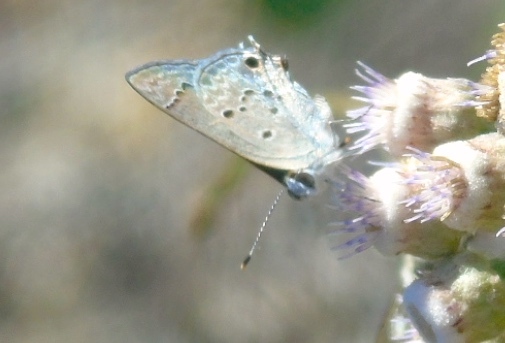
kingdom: Animalia
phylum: Arthropoda
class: Insecta
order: Lepidoptera
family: Lycaenidae
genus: Callicista
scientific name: Callicista columella
